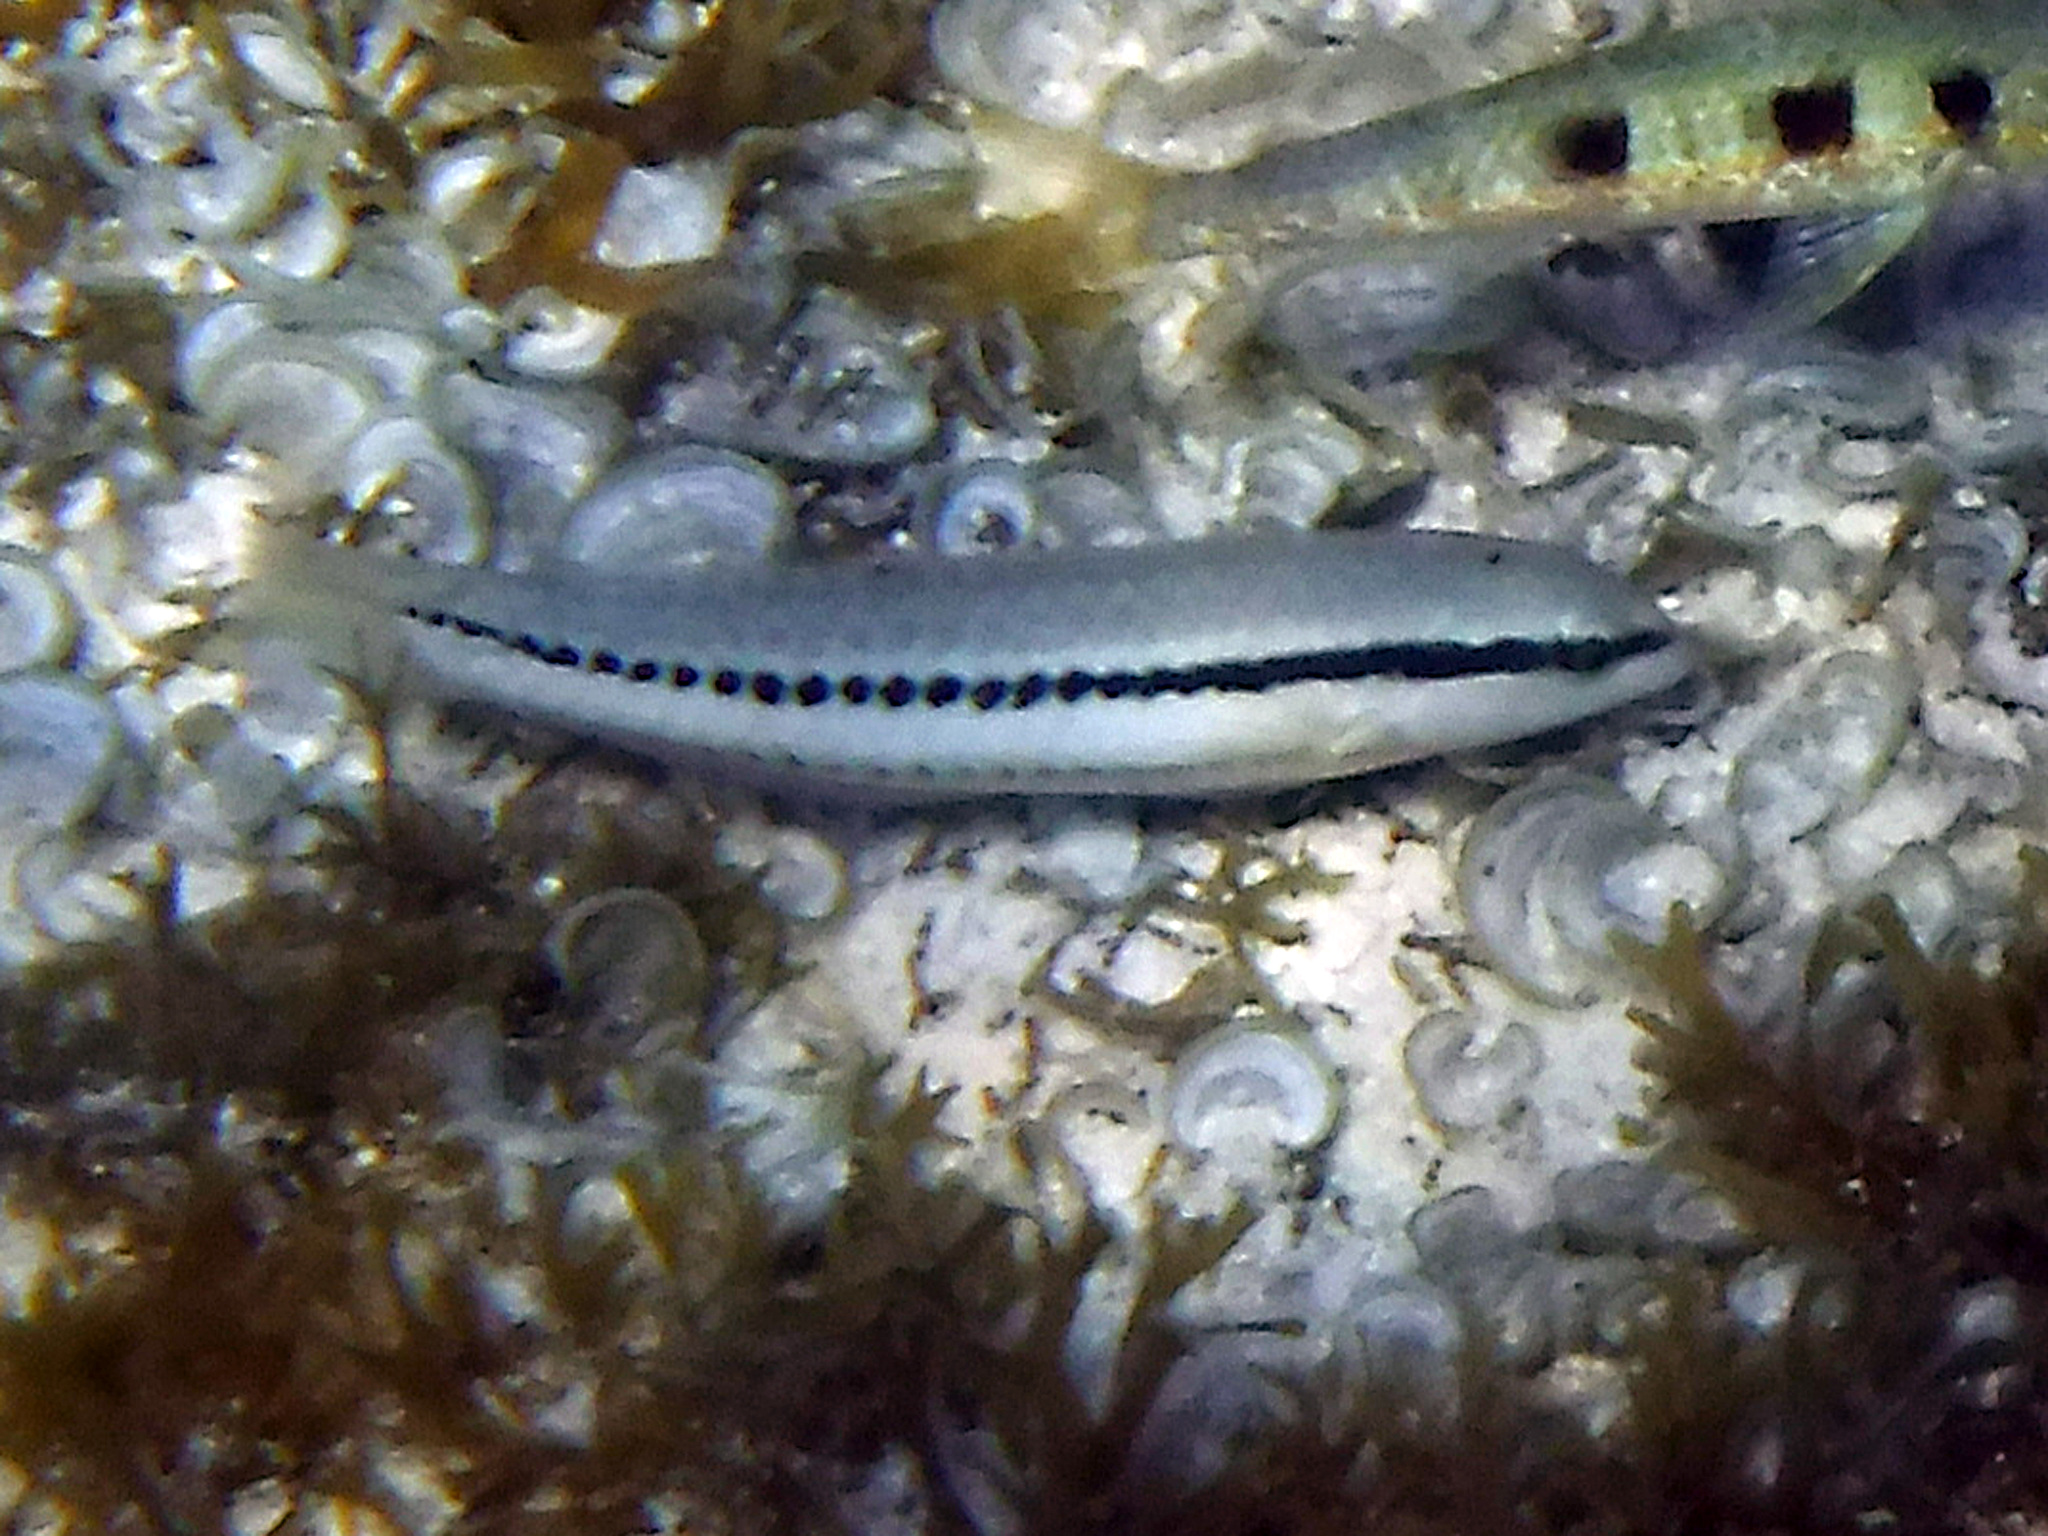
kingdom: Animalia
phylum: Chordata
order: Perciformes
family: Labridae
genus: Halichoeres
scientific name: Halichoeres bivittatus
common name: Slippery dick
